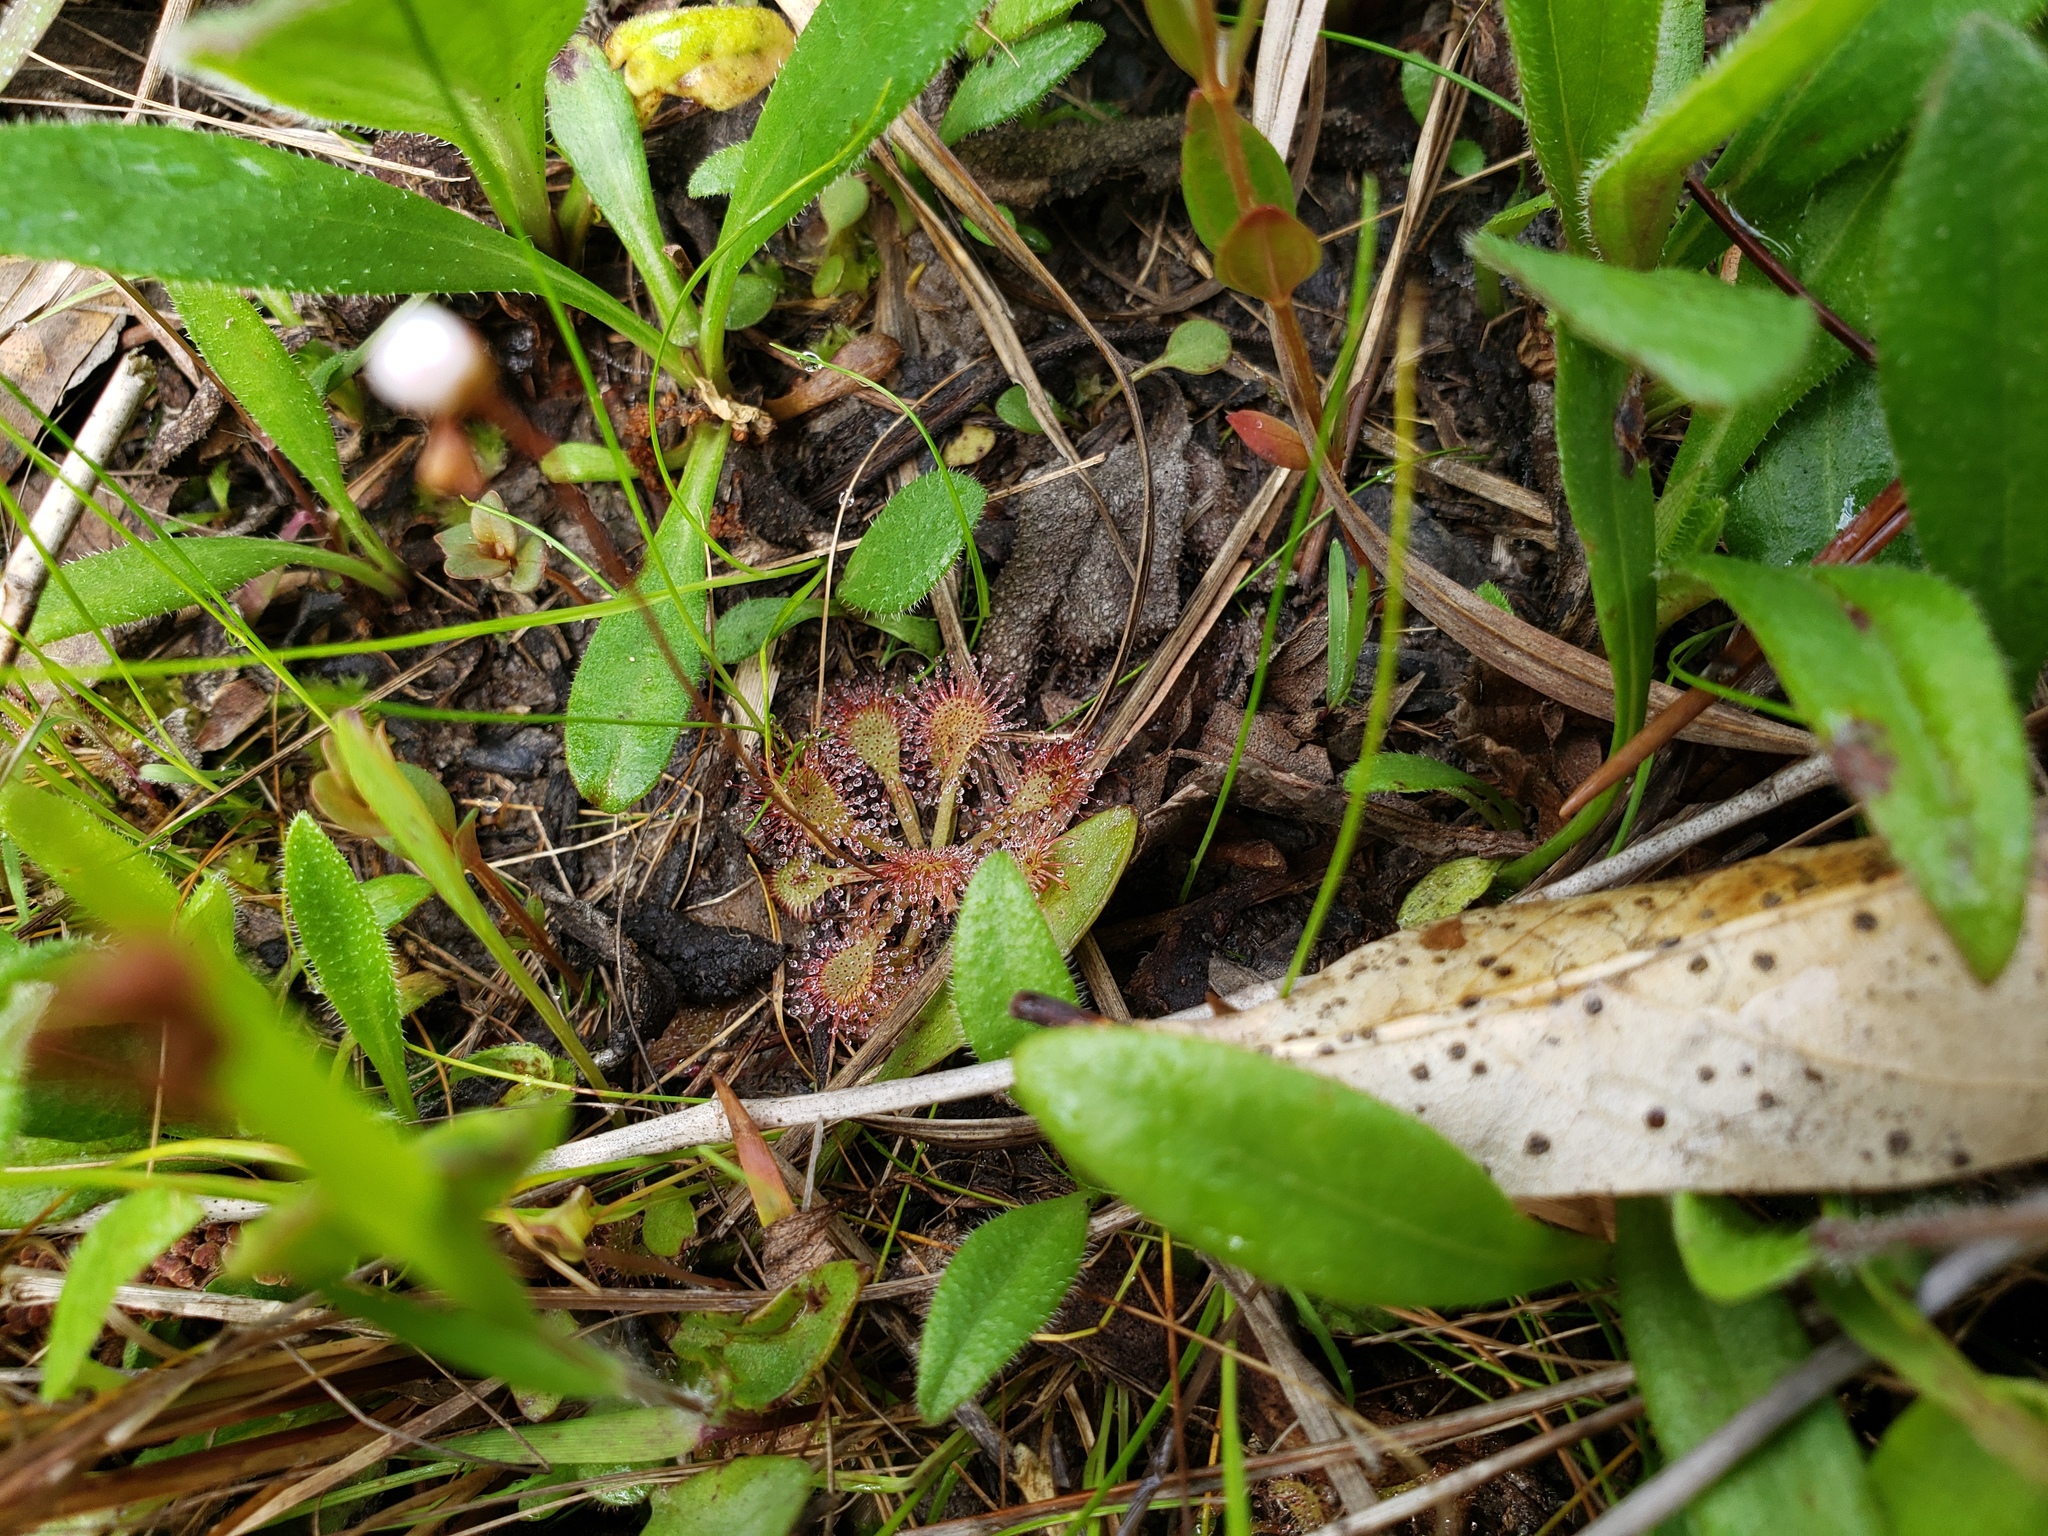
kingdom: Plantae
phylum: Tracheophyta
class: Magnoliopsida
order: Caryophyllales
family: Droseraceae
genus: Drosera
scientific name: Drosera capillaris
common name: Pink sundew
